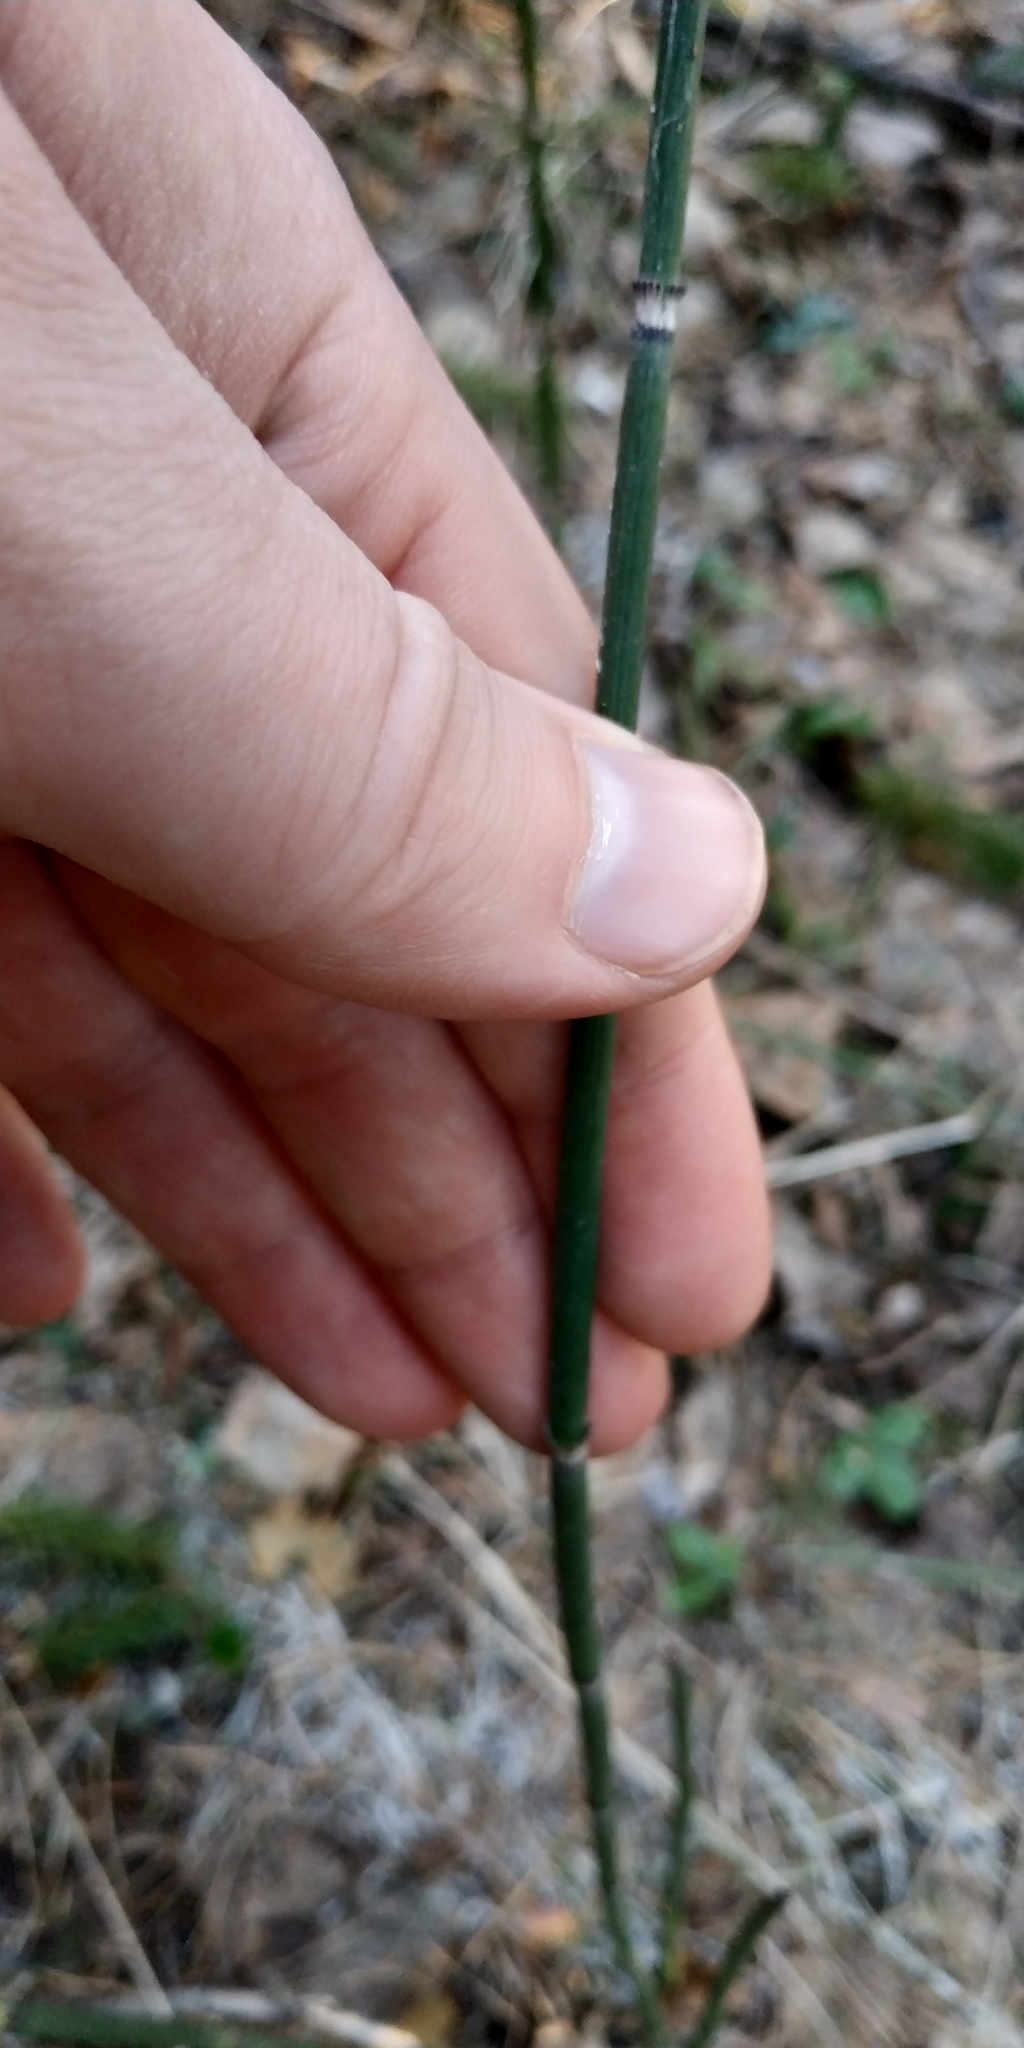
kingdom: Plantae
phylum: Tracheophyta
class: Polypodiopsida
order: Equisetales
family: Equisetaceae
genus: Equisetum
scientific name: Equisetum hyemale
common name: Rough horsetail
